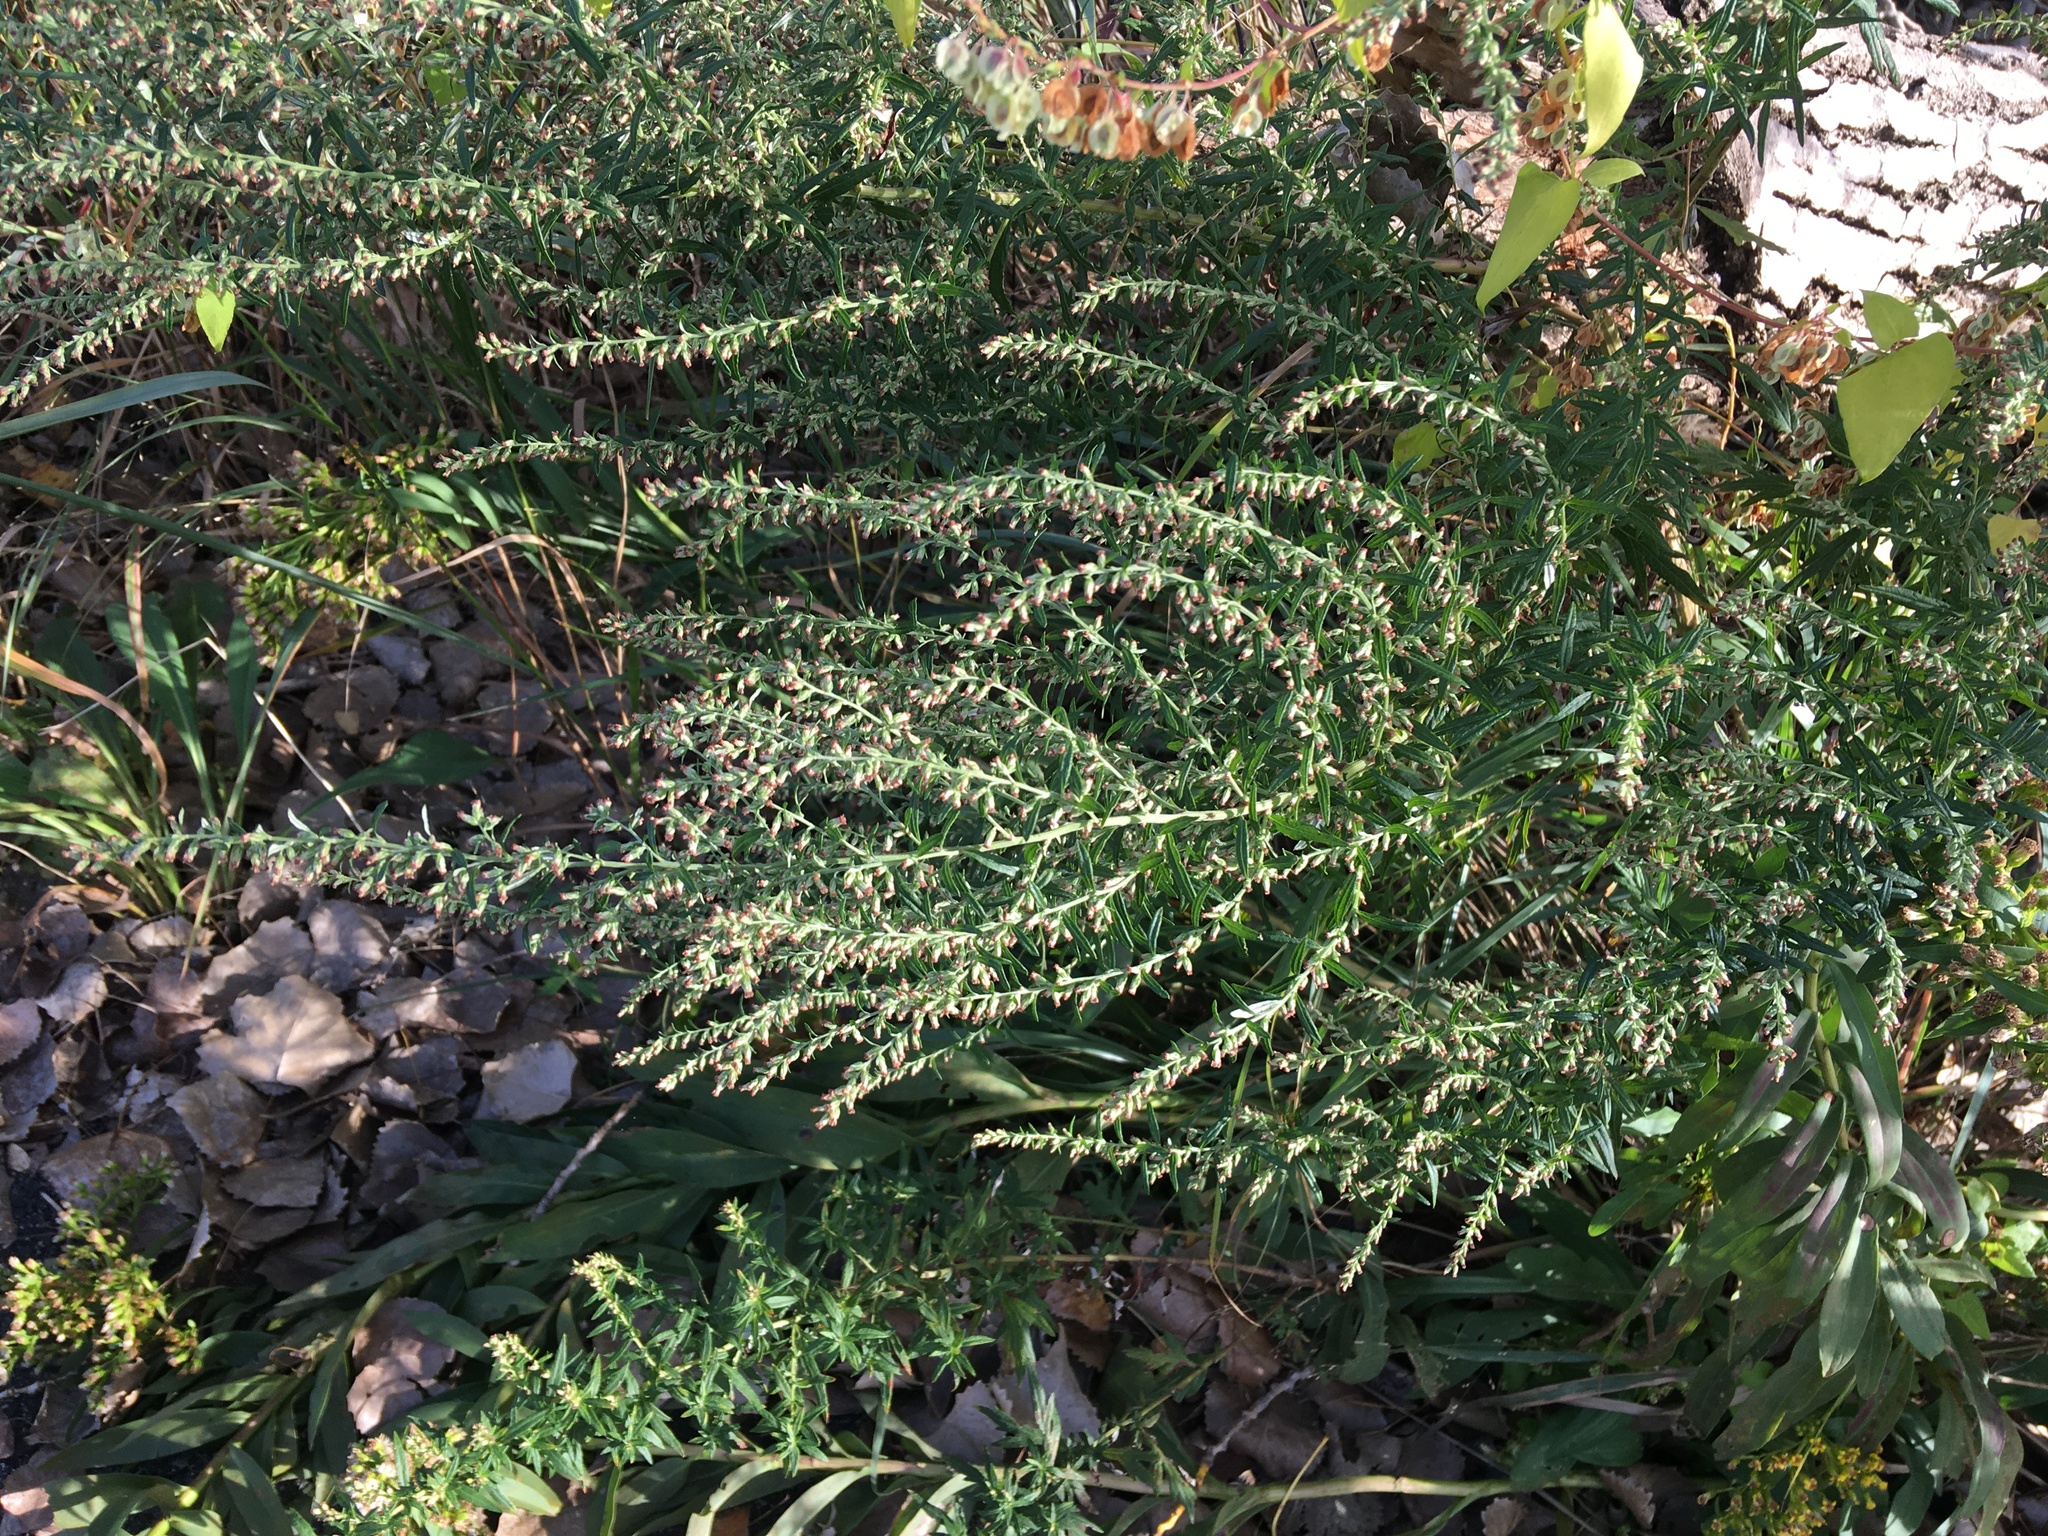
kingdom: Plantae
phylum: Tracheophyta
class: Magnoliopsida
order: Asterales
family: Asteraceae
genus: Artemisia
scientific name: Artemisia vulgaris
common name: Mugwort
